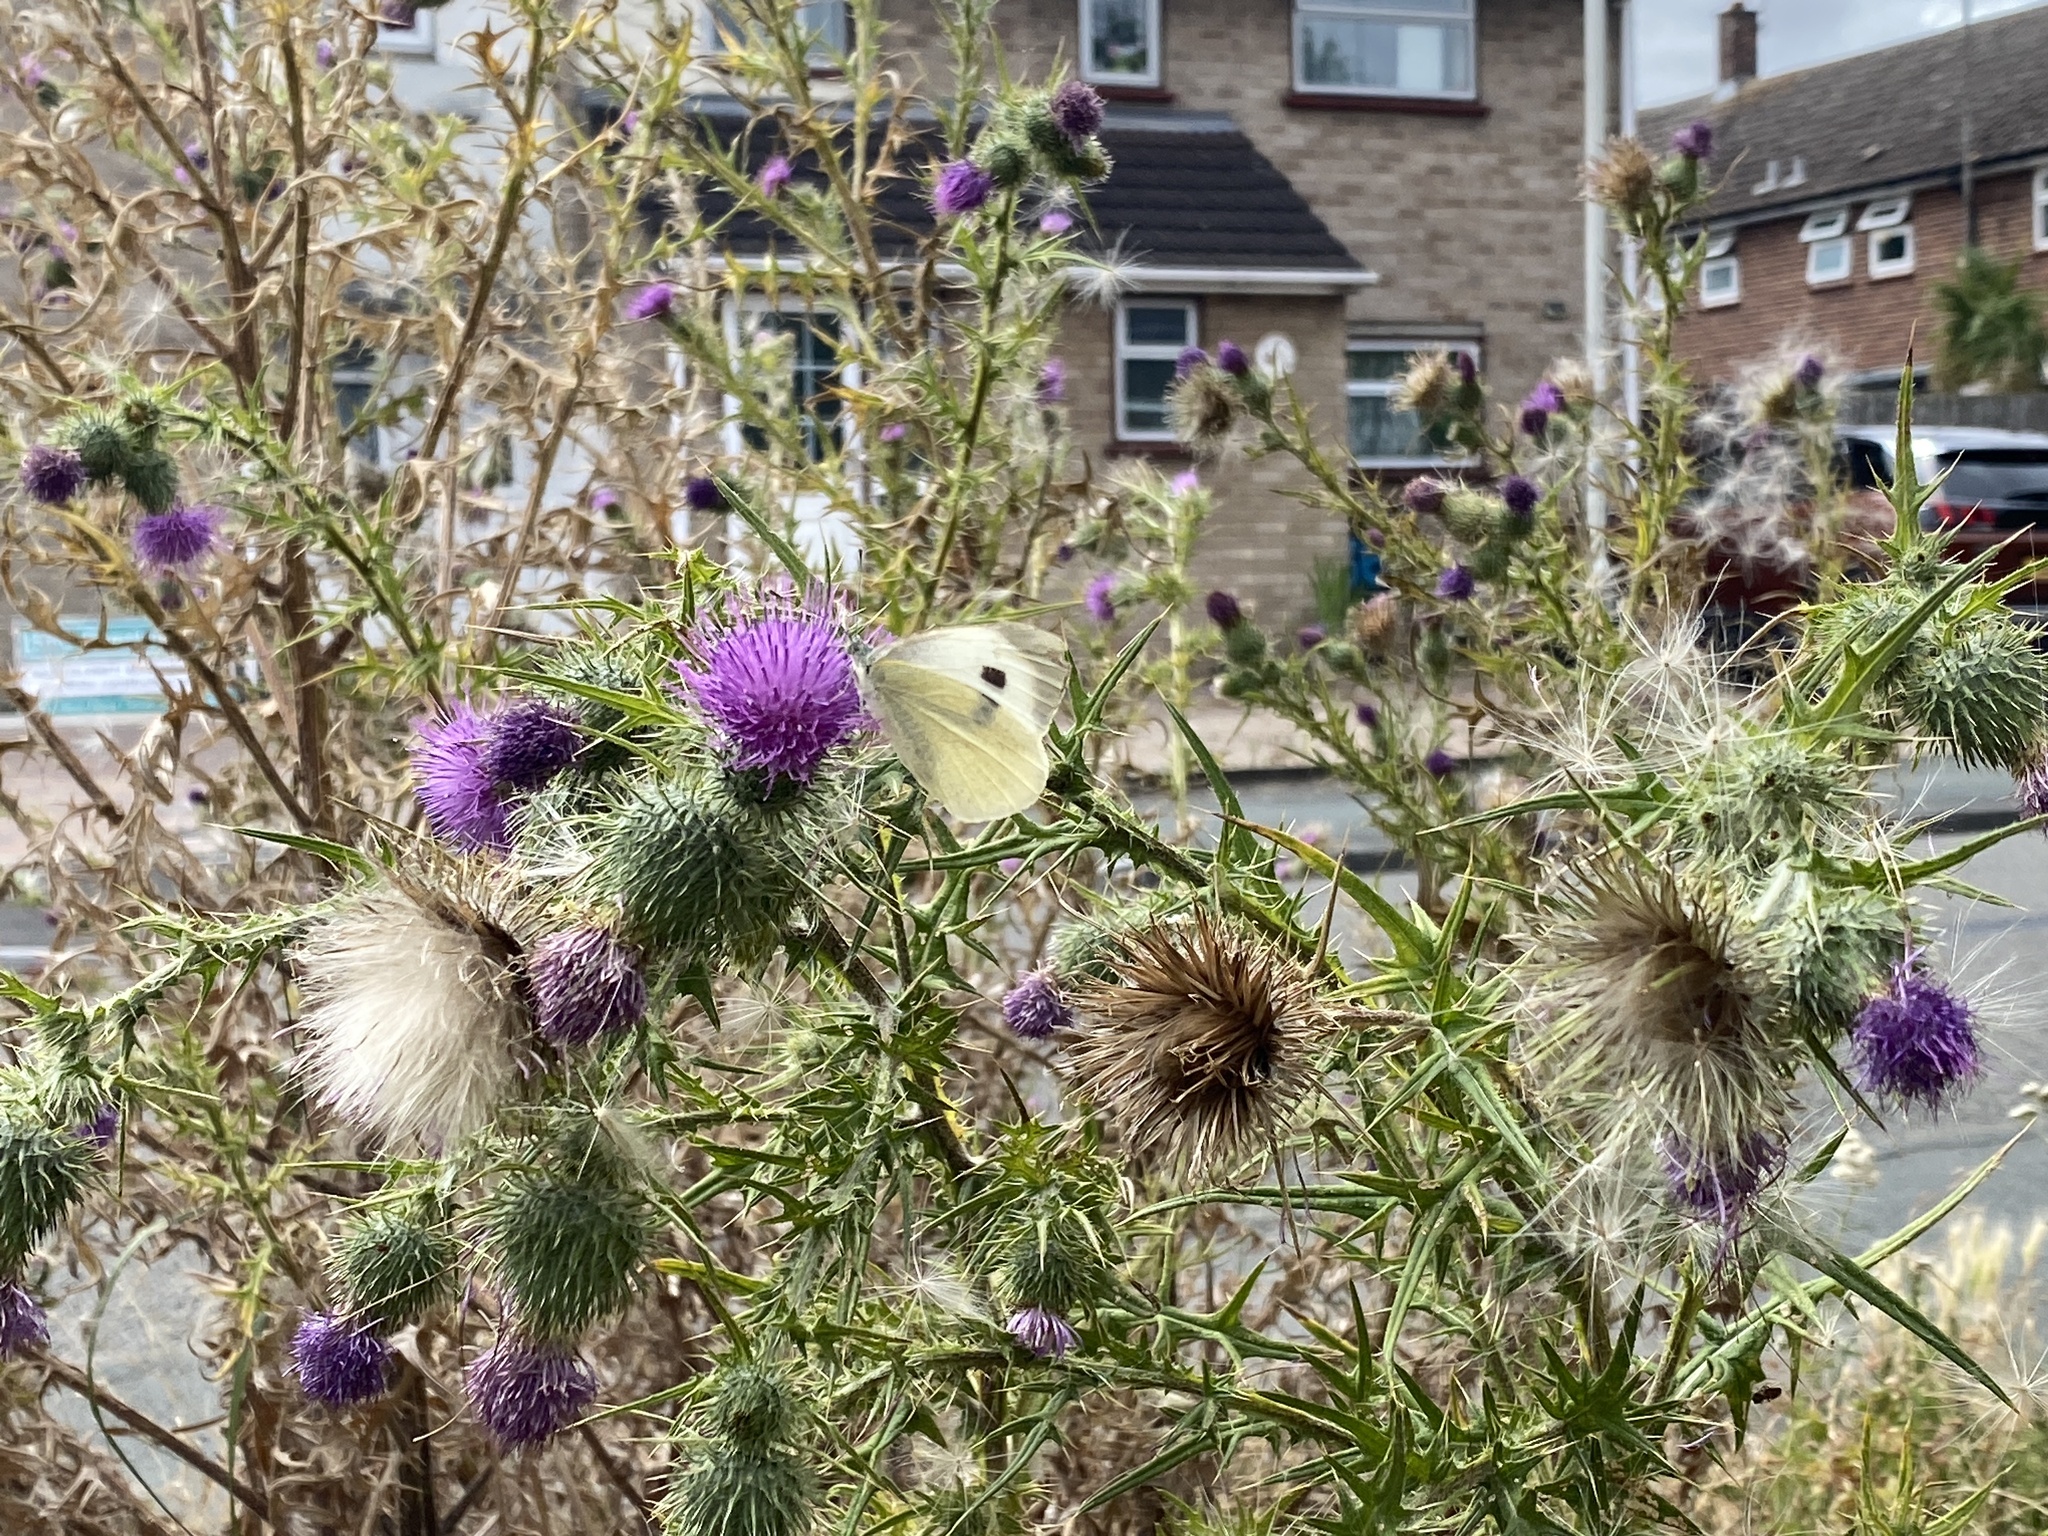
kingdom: Animalia
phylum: Arthropoda
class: Insecta
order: Lepidoptera
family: Pieridae
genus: Pieris
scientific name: Pieris brassicae
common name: Large white
